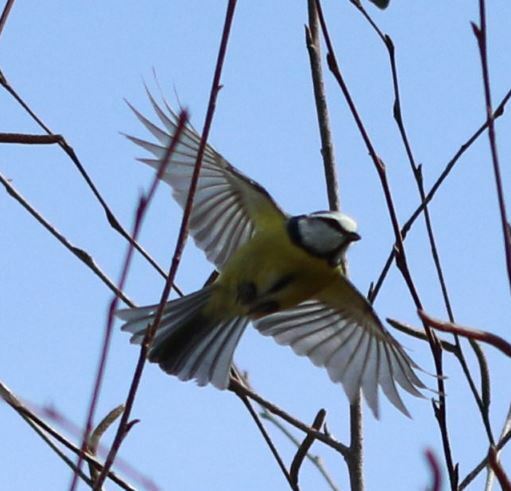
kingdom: Animalia
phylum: Chordata
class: Aves
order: Passeriformes
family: Paridae
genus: Cyanistes
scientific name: Cyanistes caeruleus
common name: Eurasian blue tit
